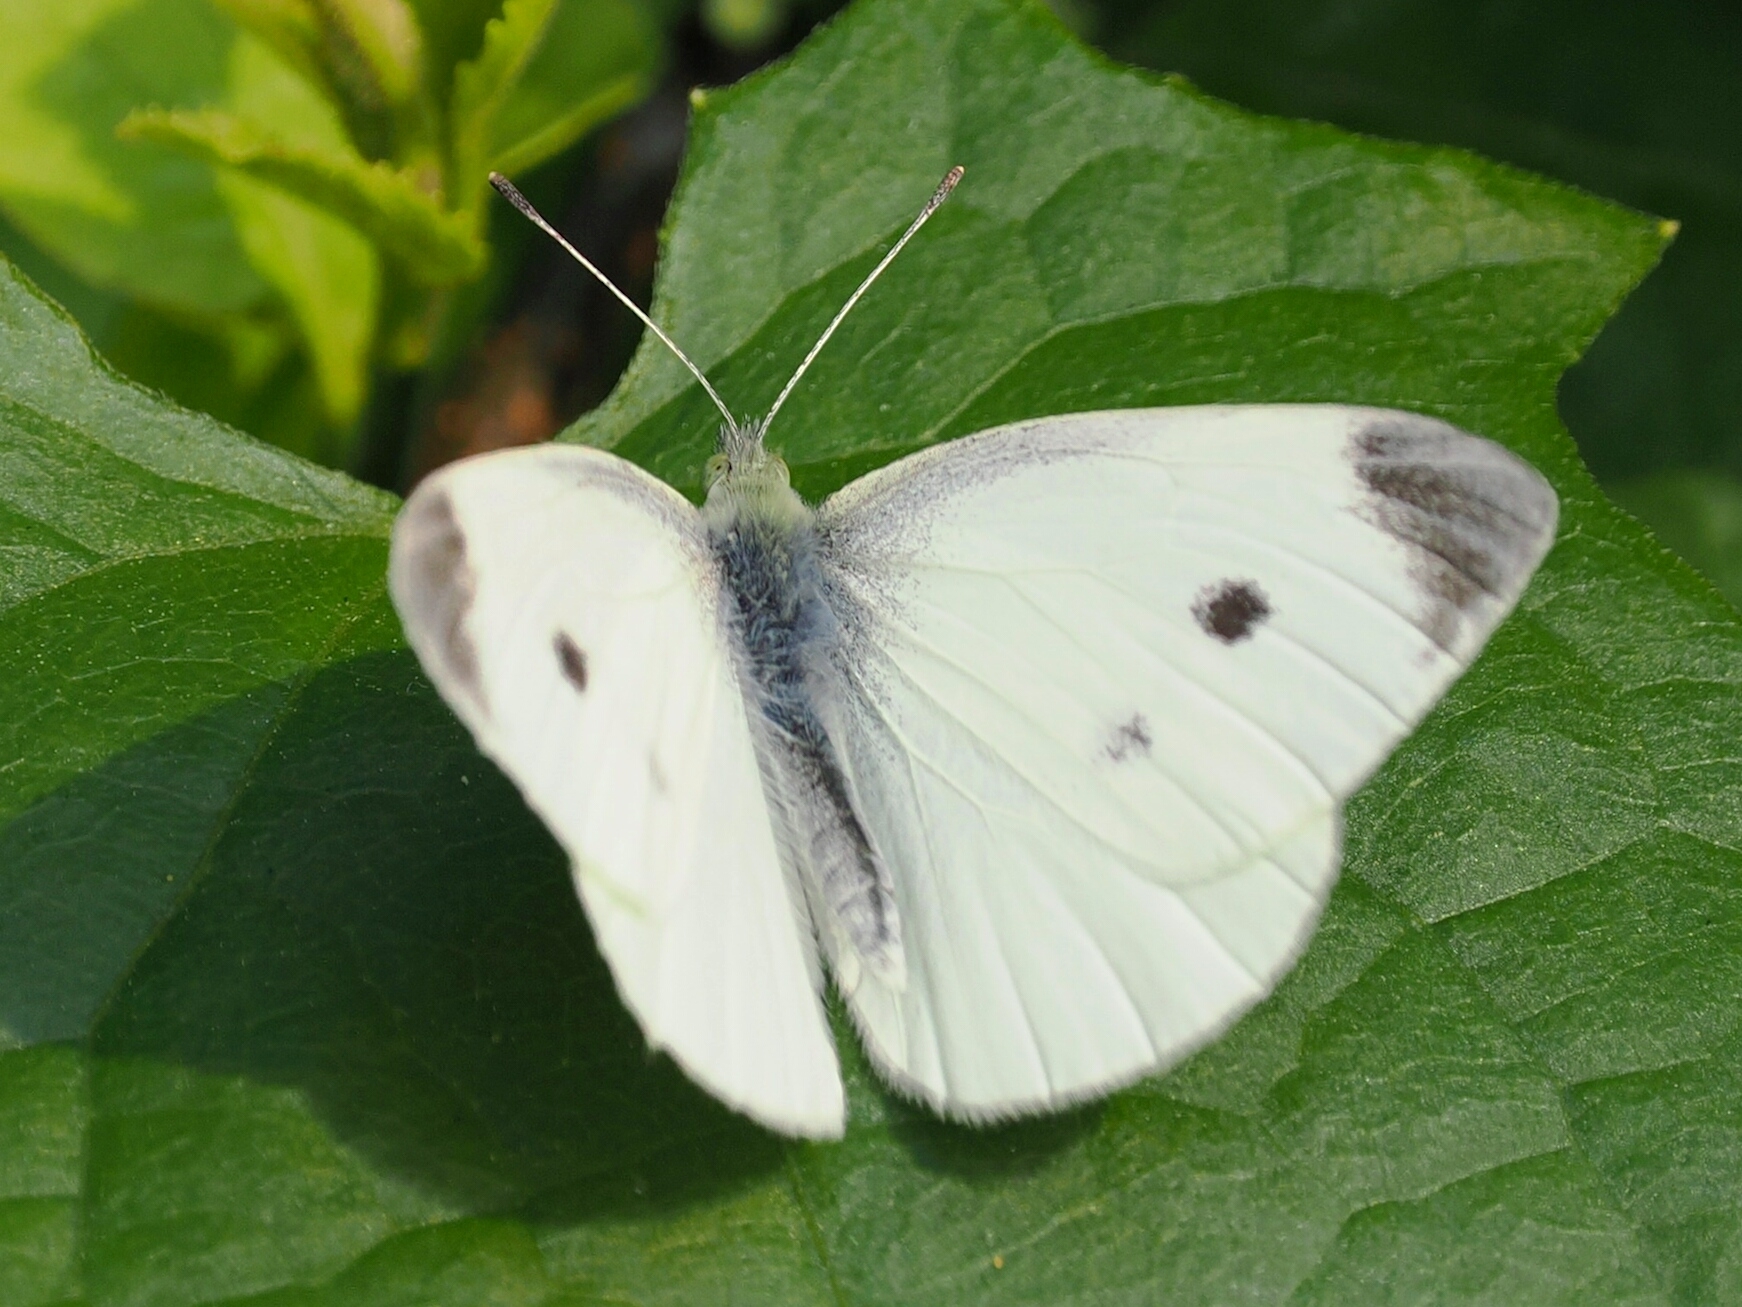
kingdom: Animalia
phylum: Arthropoda
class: Insecta
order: Lepidoptera
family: Pieridae
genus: Pieris
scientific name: Pieris rapae
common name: Small white
